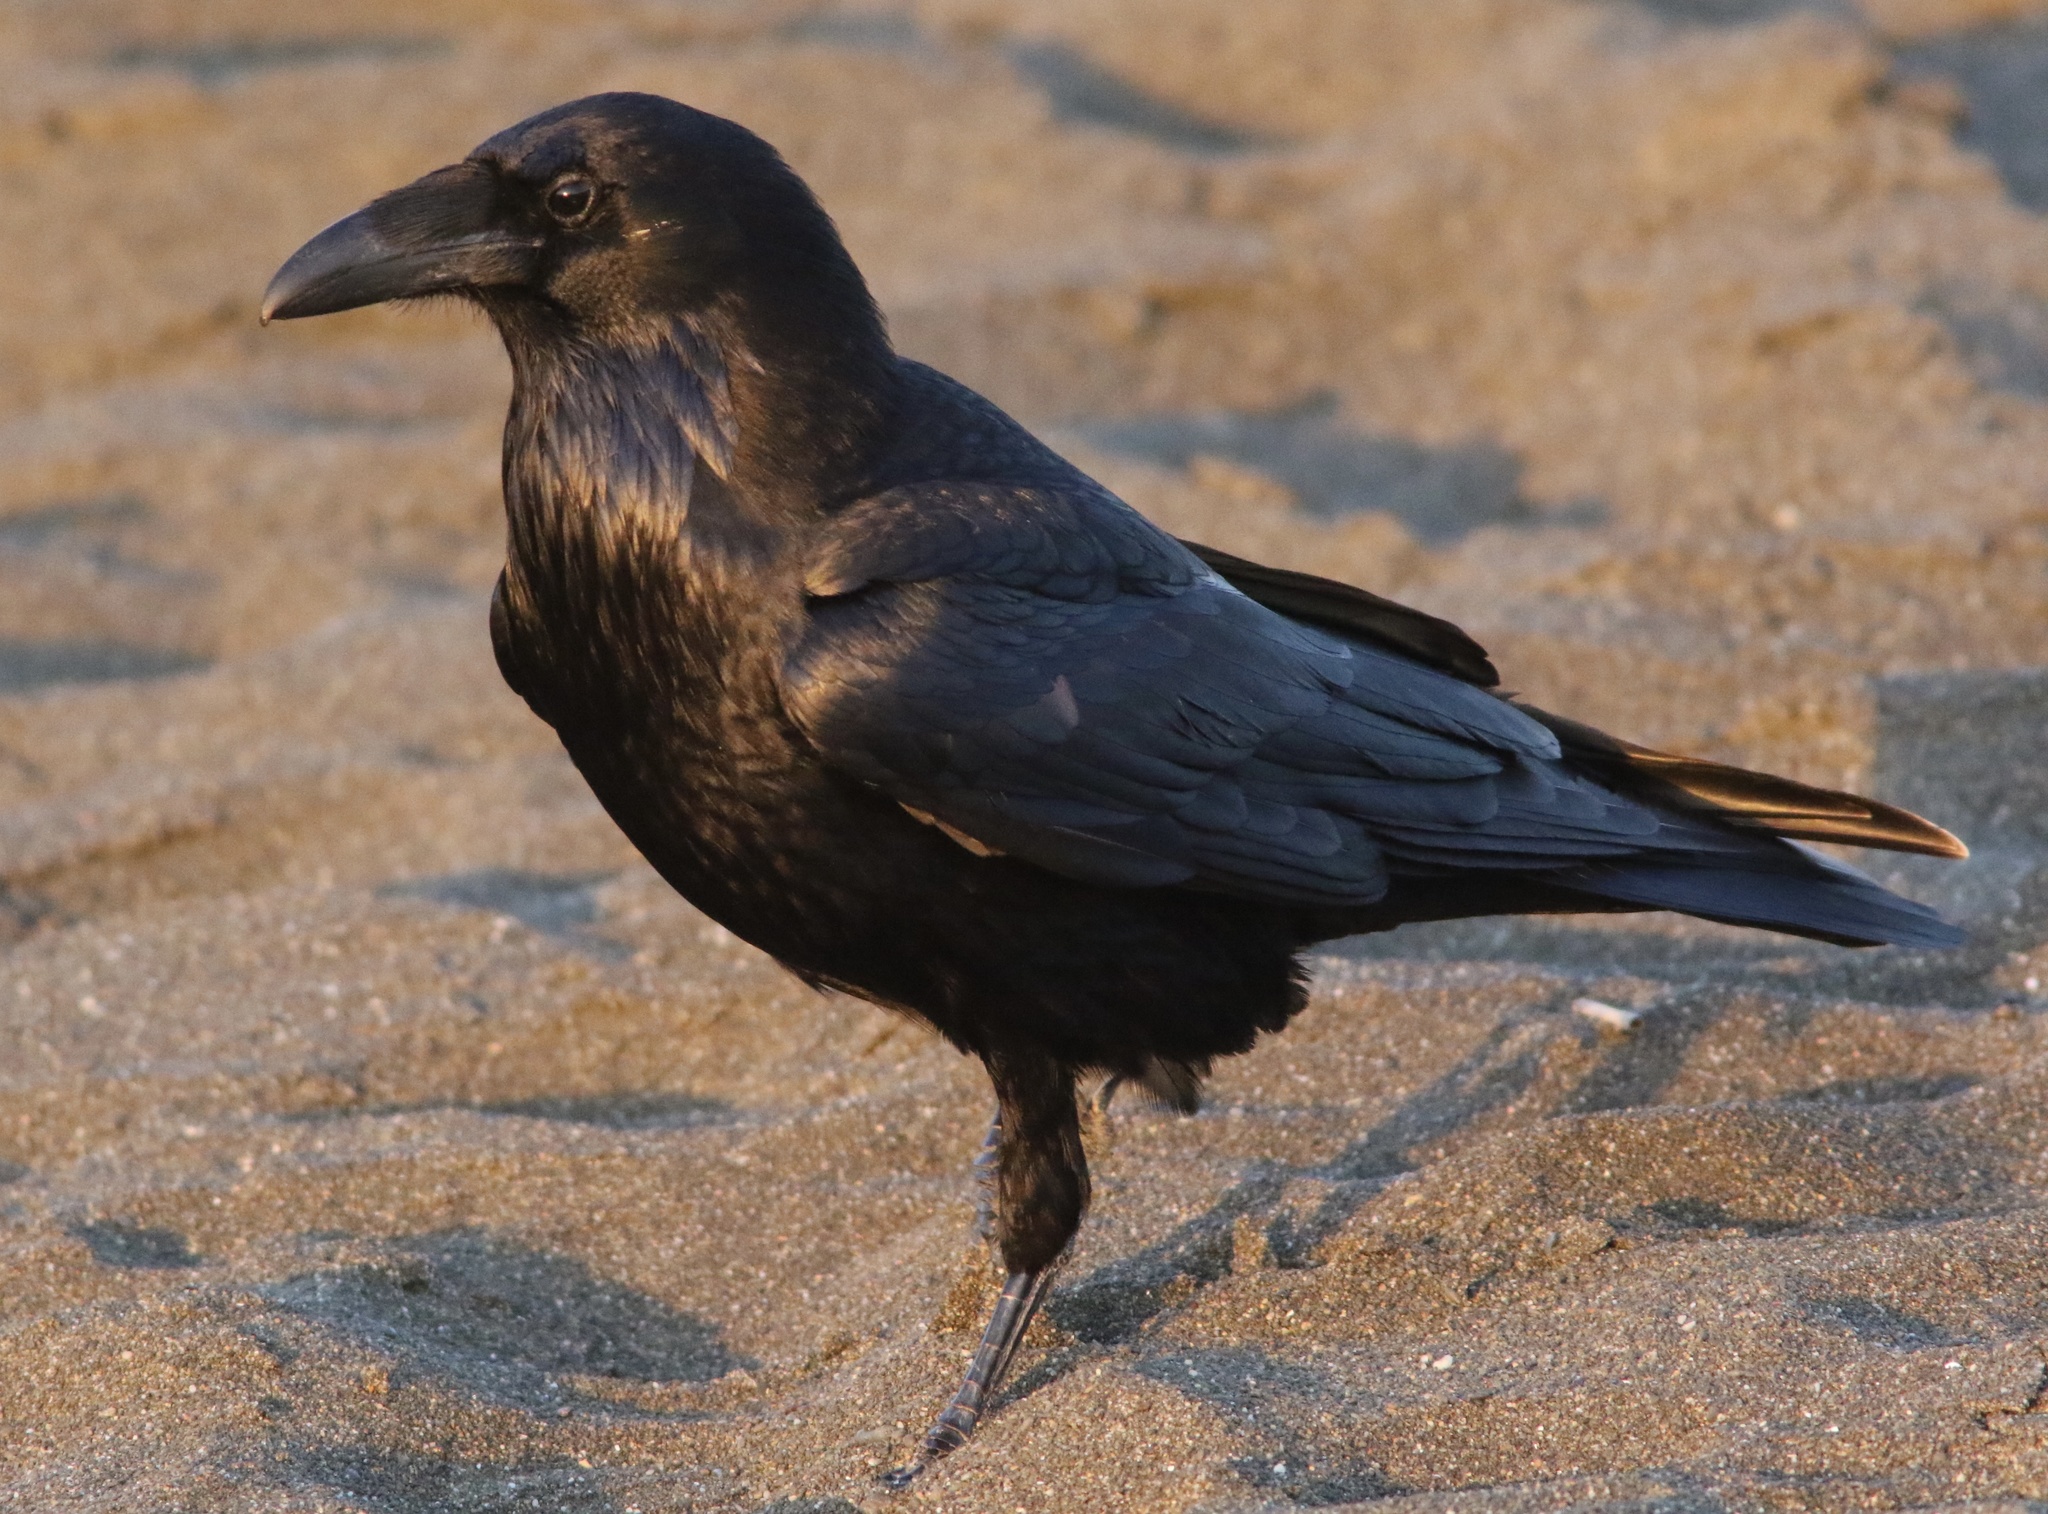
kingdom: Animalia
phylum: Chordata
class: Aves
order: Passeriformes
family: Corvidae
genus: Corvus
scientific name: Corvus corax
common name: Common raven
